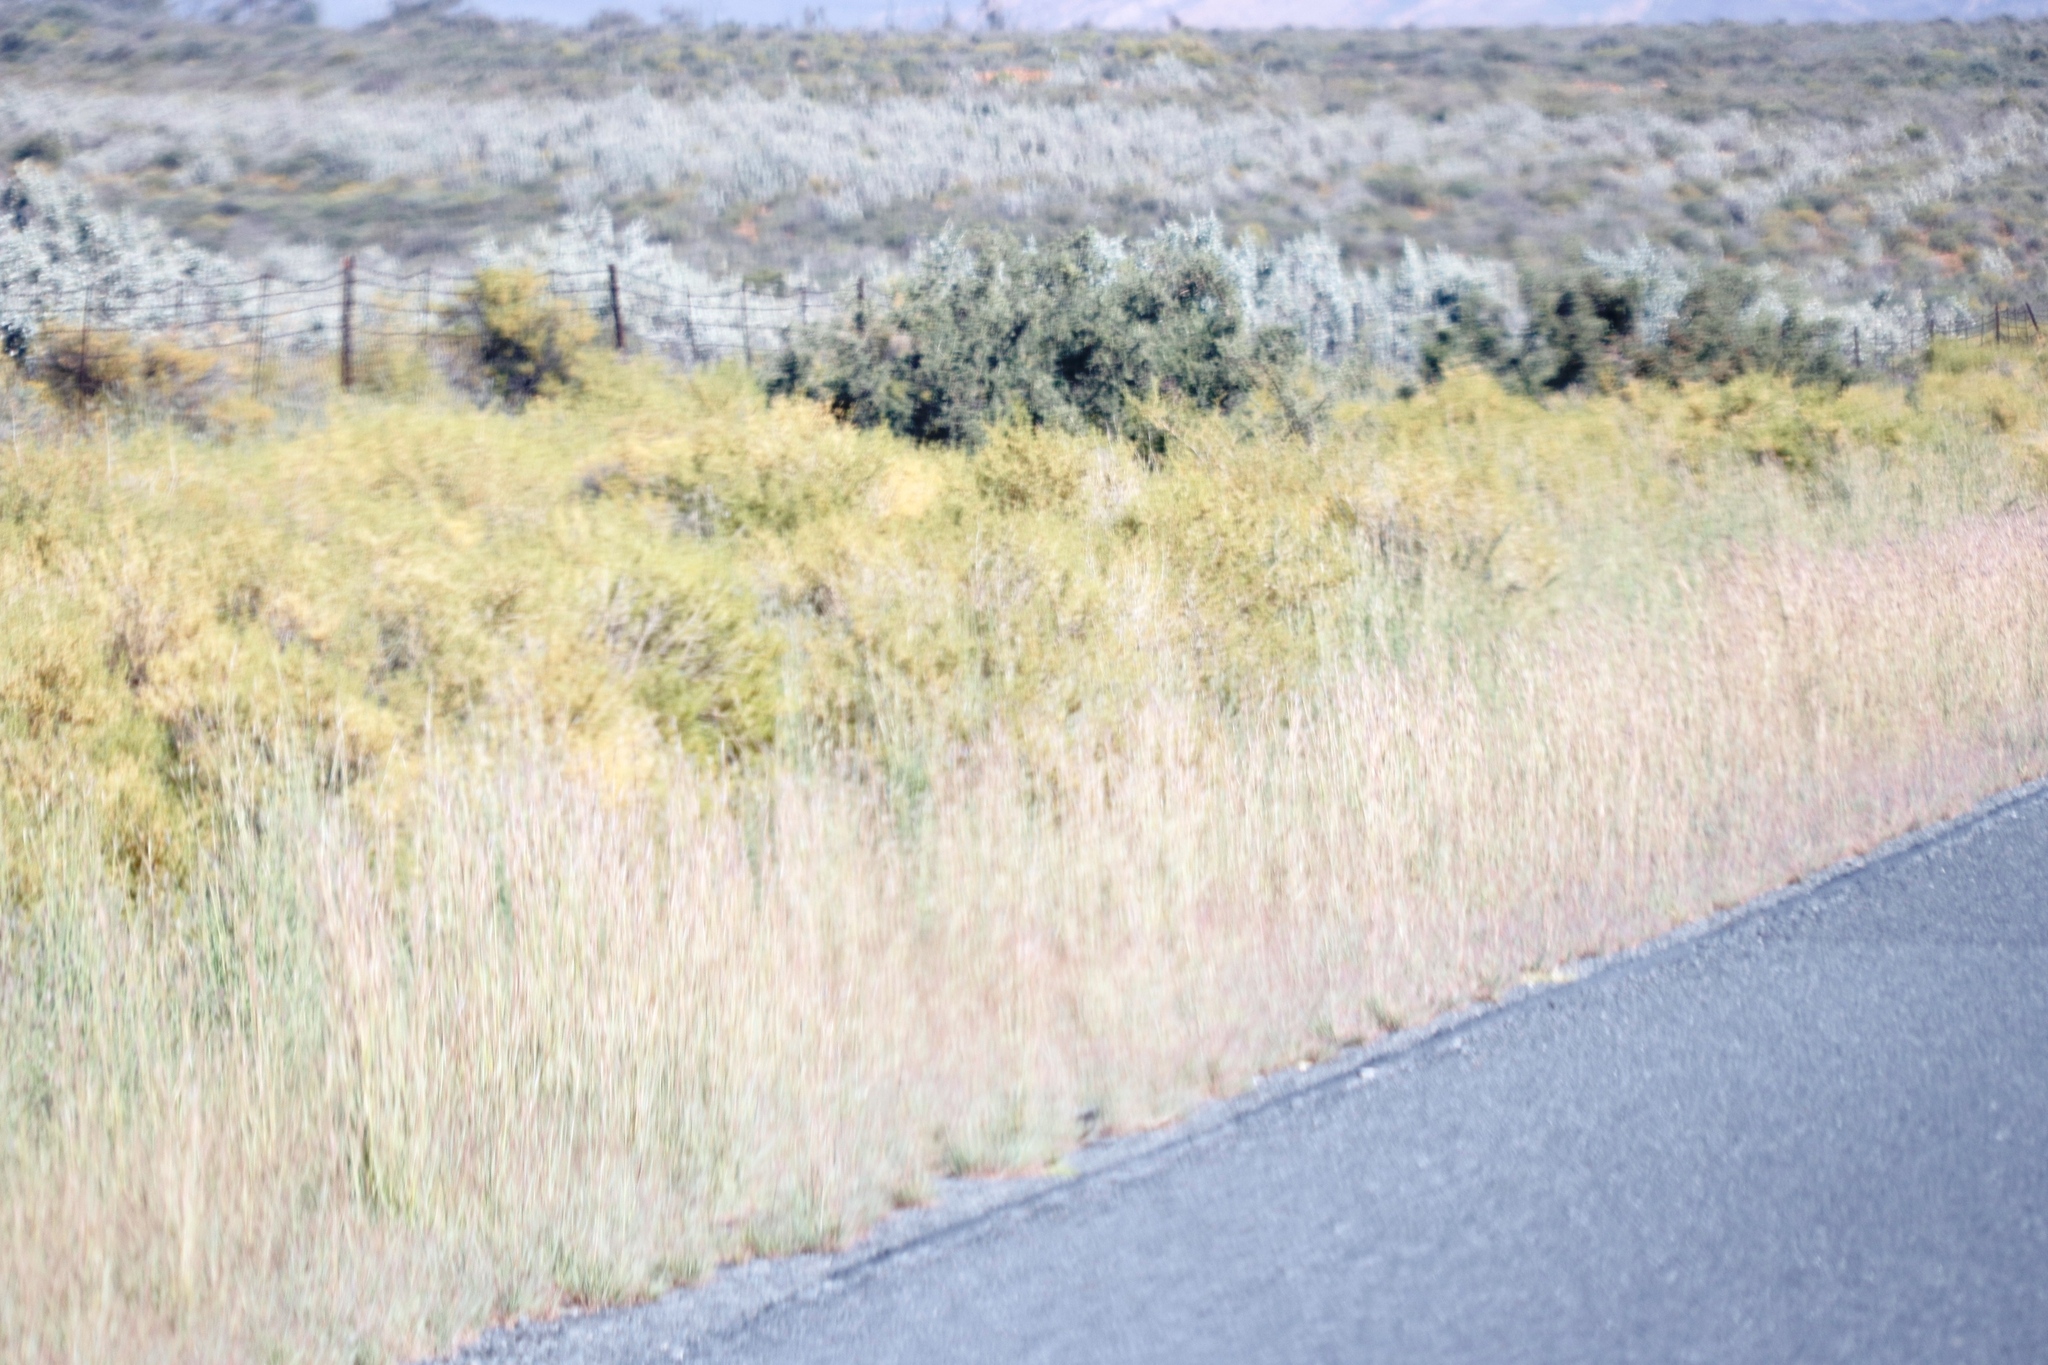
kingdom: Plantae
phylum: Tracheophyta
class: Magnoliopsida
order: Caryophyllales
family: Aizoaceae
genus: Aizoon
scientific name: Aizoon africanum
